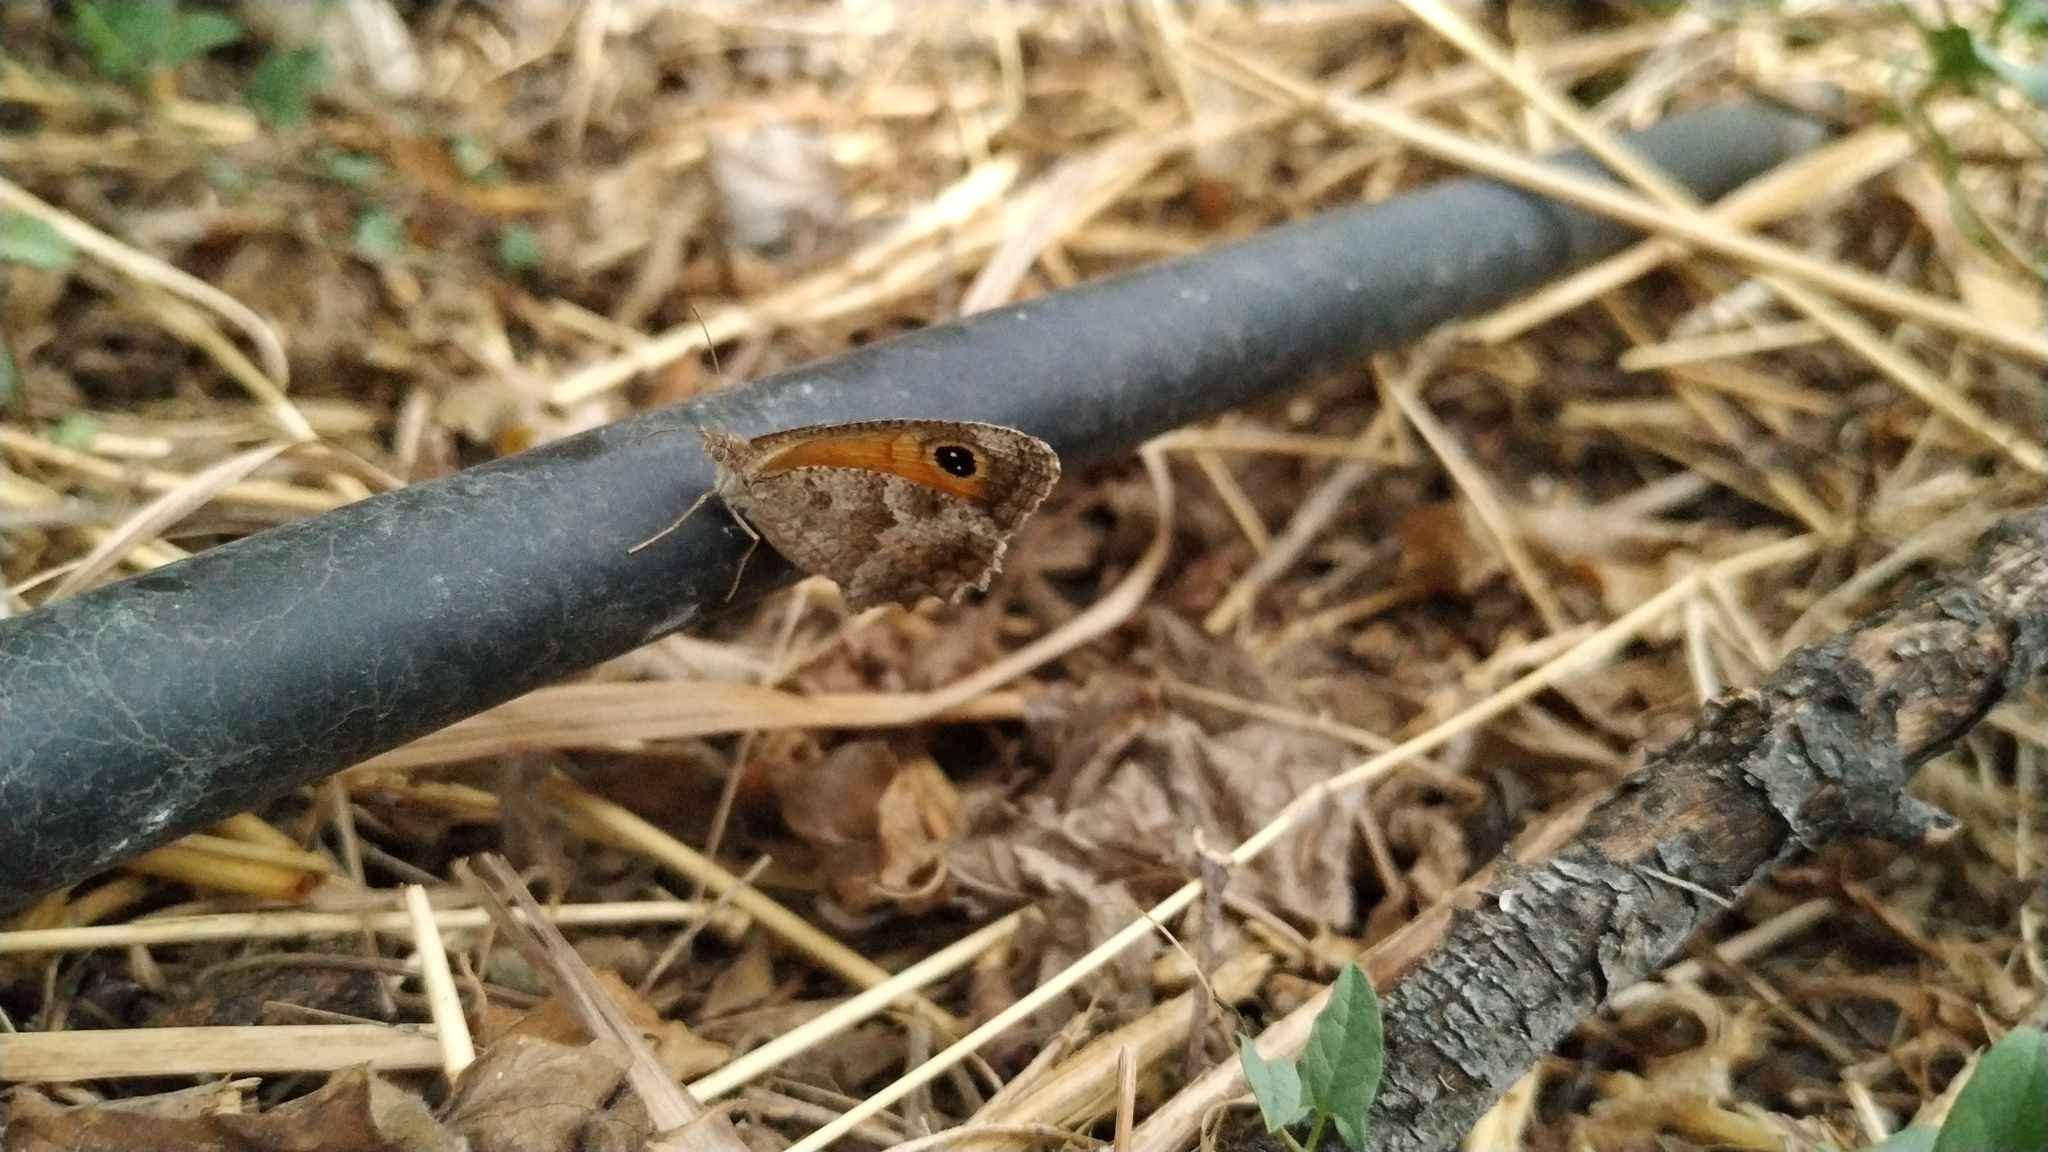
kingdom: Animalia
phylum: Arthropoda
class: Insecta
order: Lepidoptera
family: Nymphalidae
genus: Pyronia
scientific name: Pyronia cecilia
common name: Southern gatekeeper
